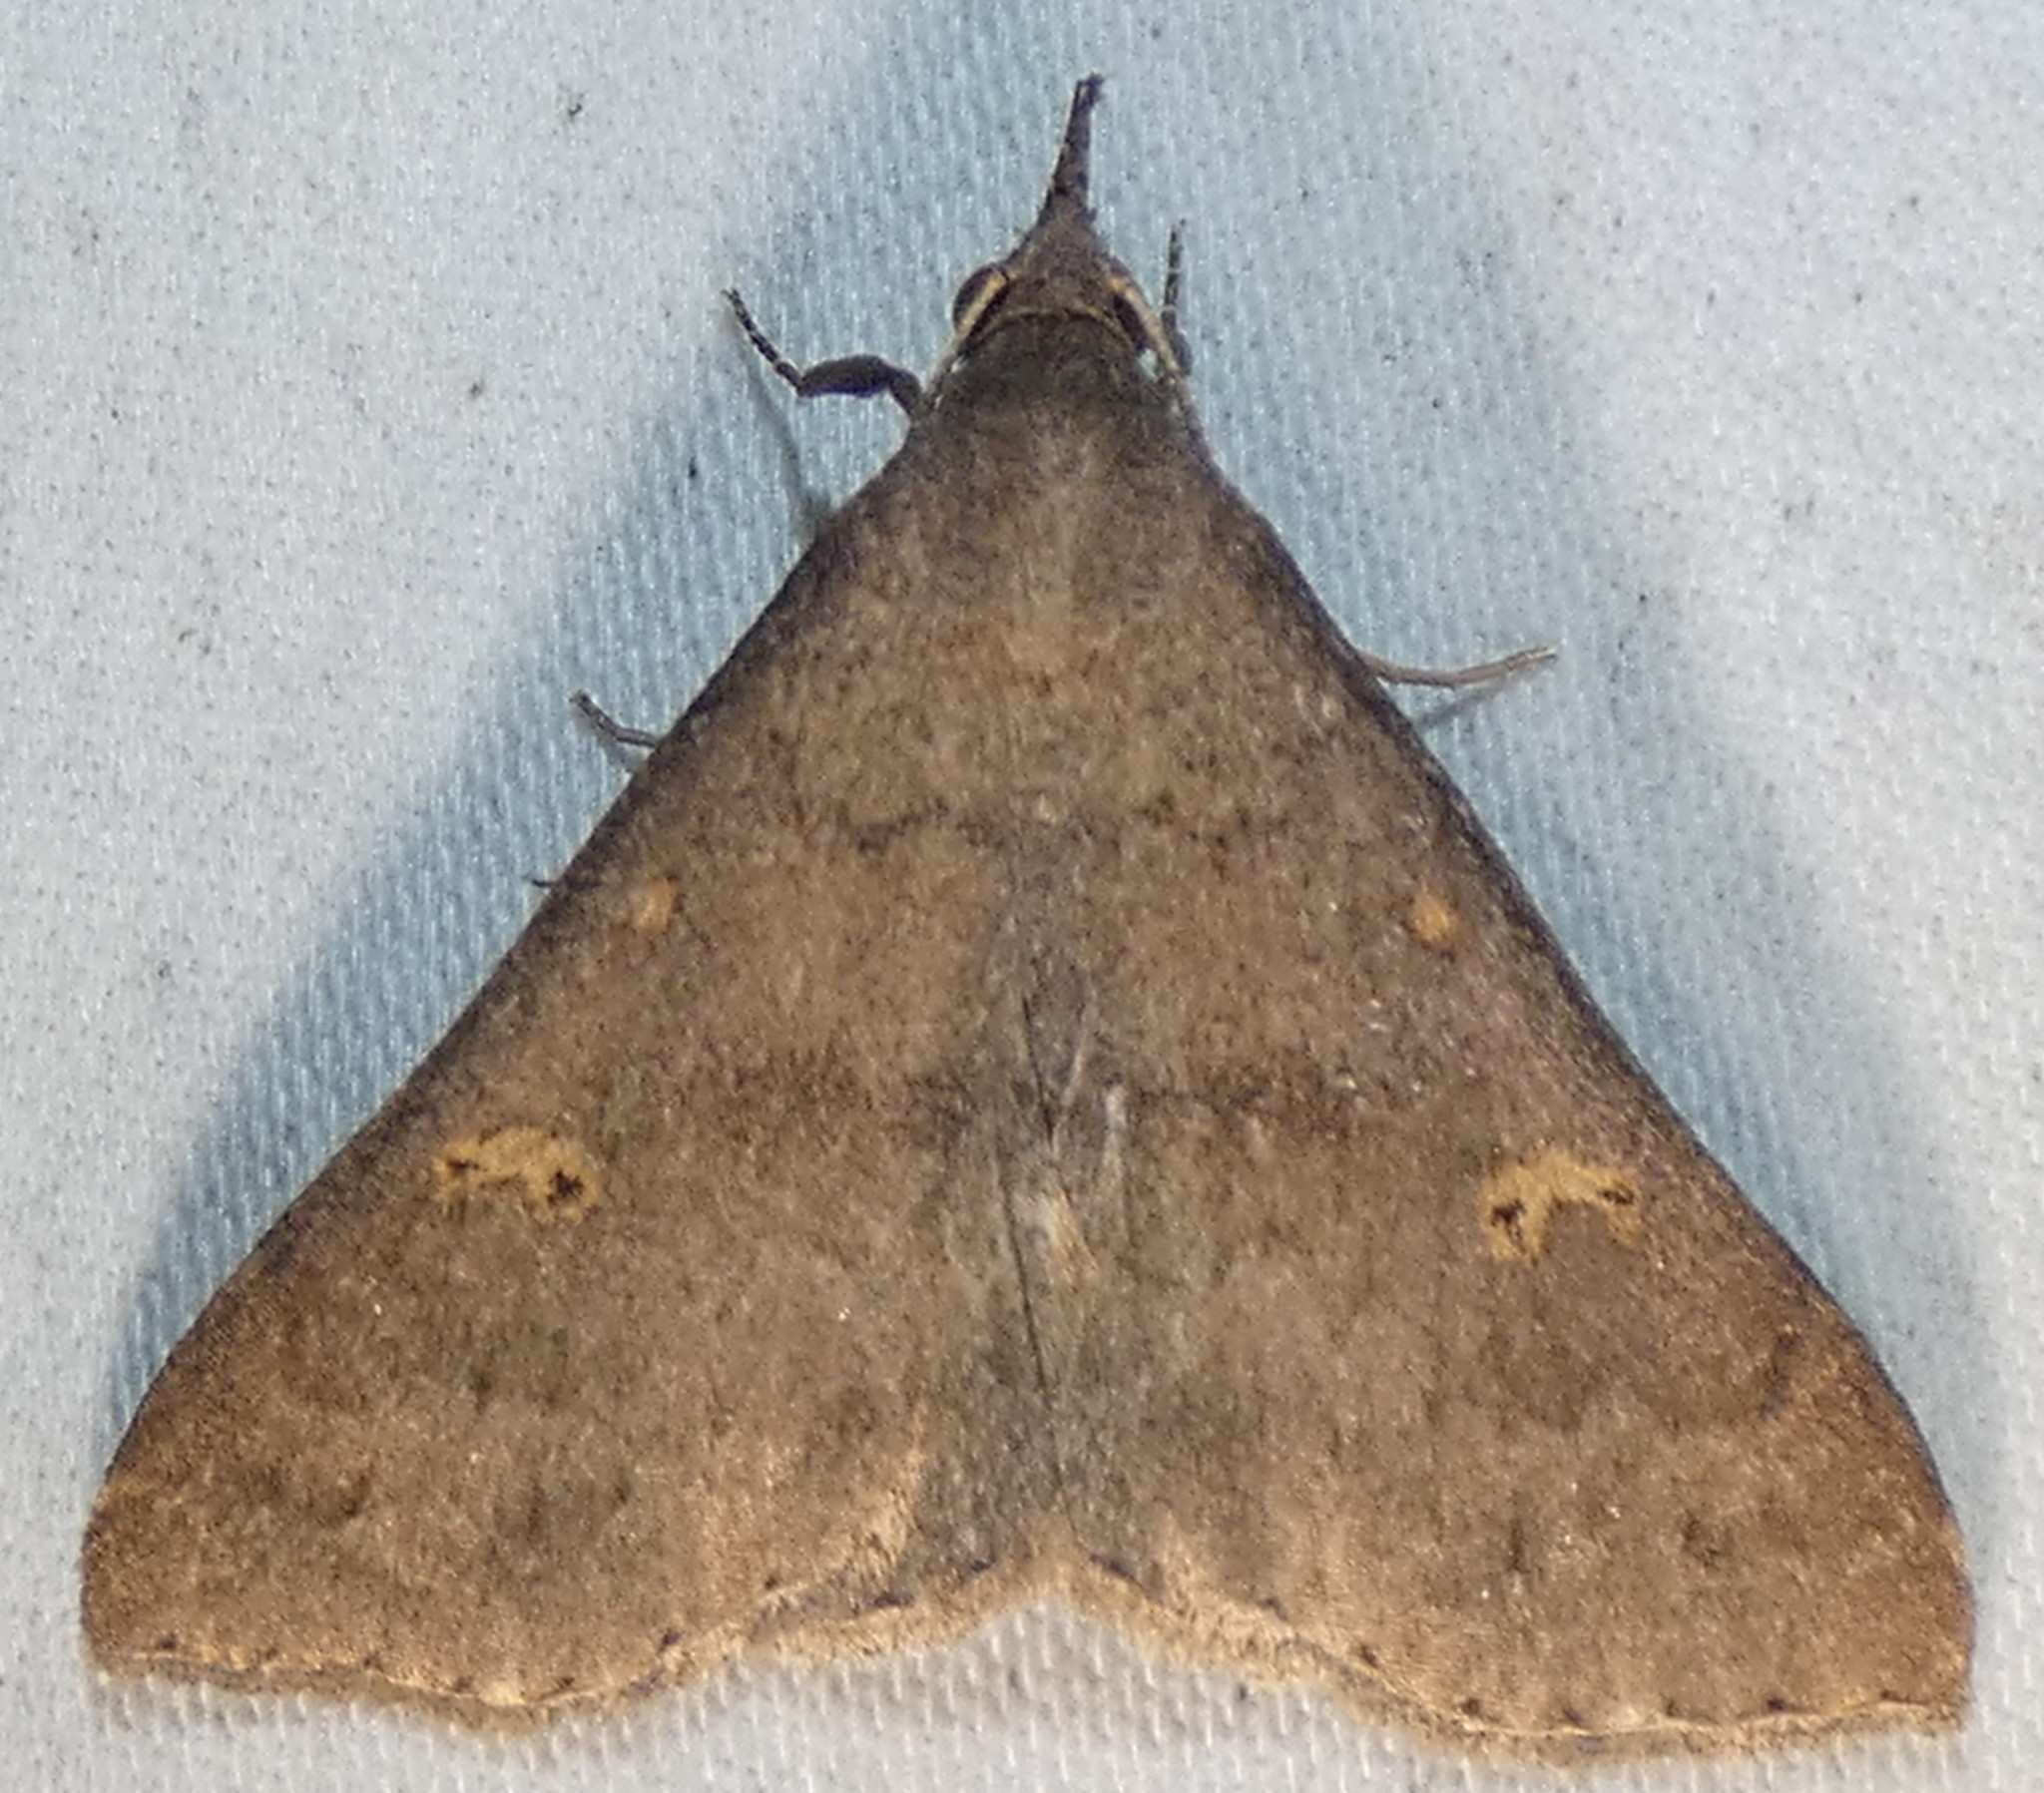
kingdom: Animalia
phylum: Arthropoda
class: Insecta
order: Lepidoptera
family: Erebidae
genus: Renia
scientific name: Renia adspergillus
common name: Speckled renia moth
